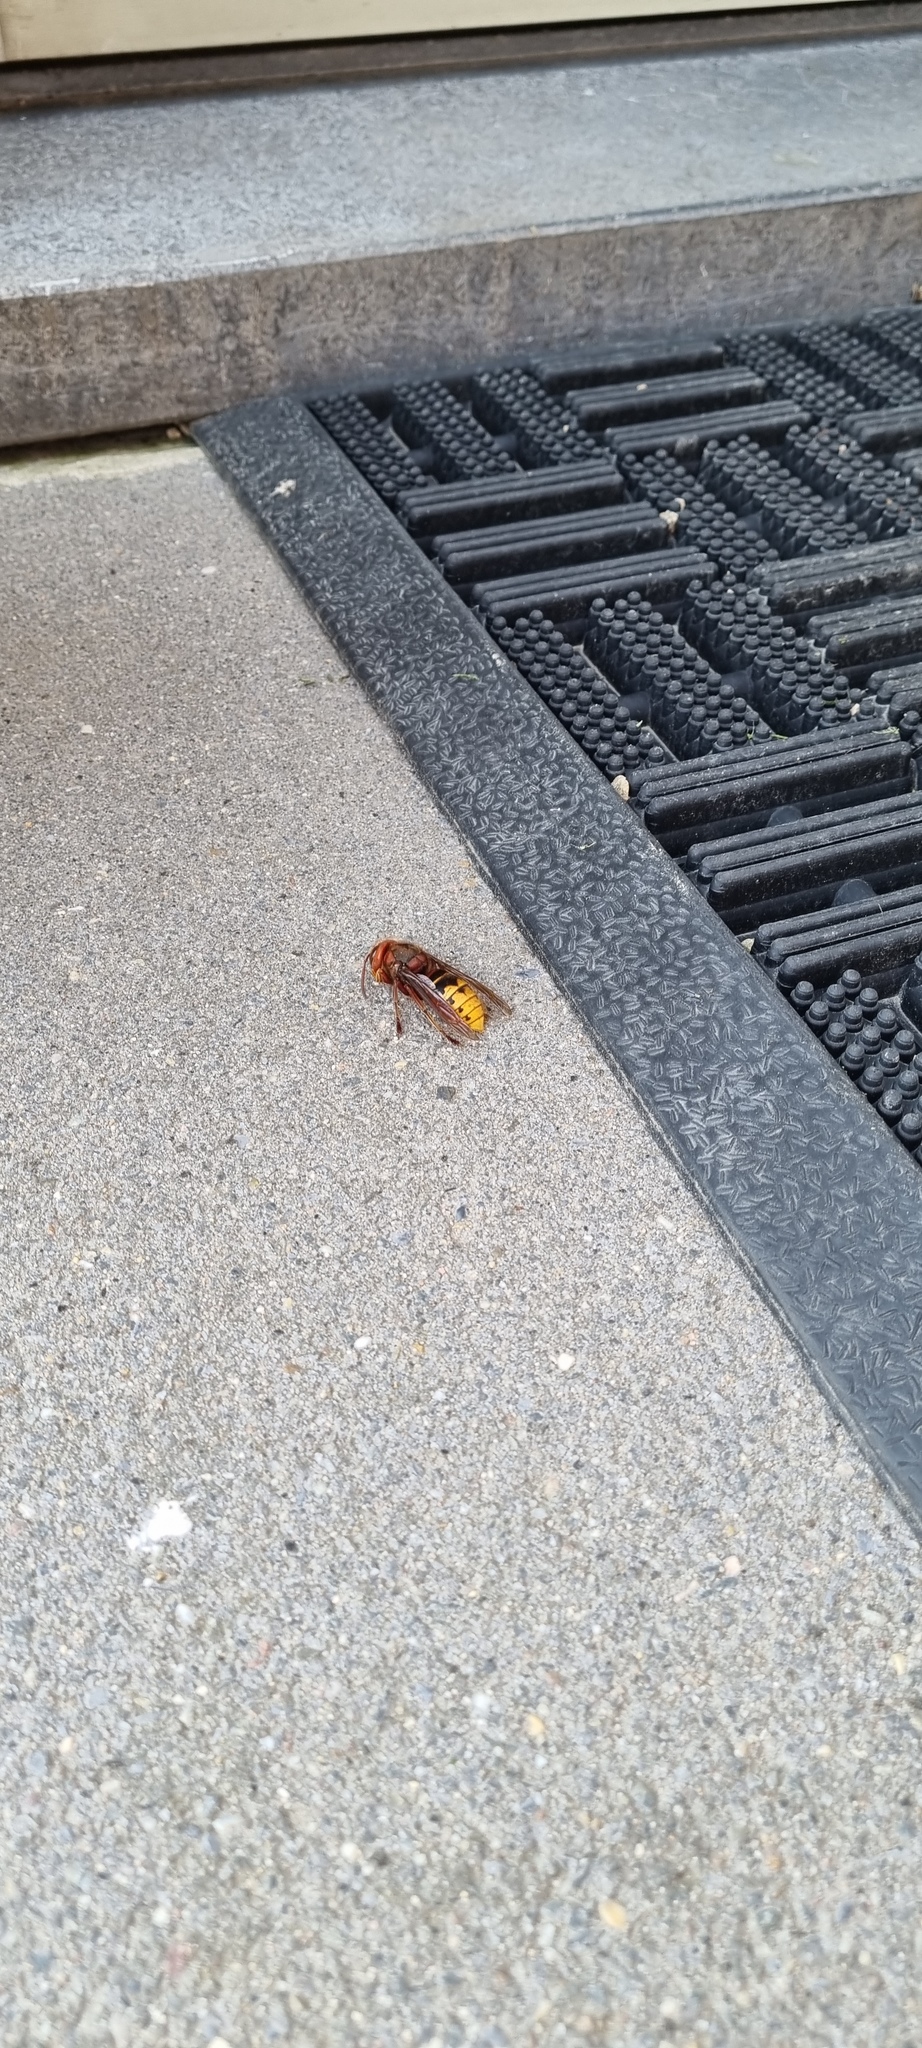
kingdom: Animalia
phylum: Arthropoda
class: Insecta
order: Hymenoptera
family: Vespidae
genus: Vespa
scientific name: Vespa crabro
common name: Hornet
